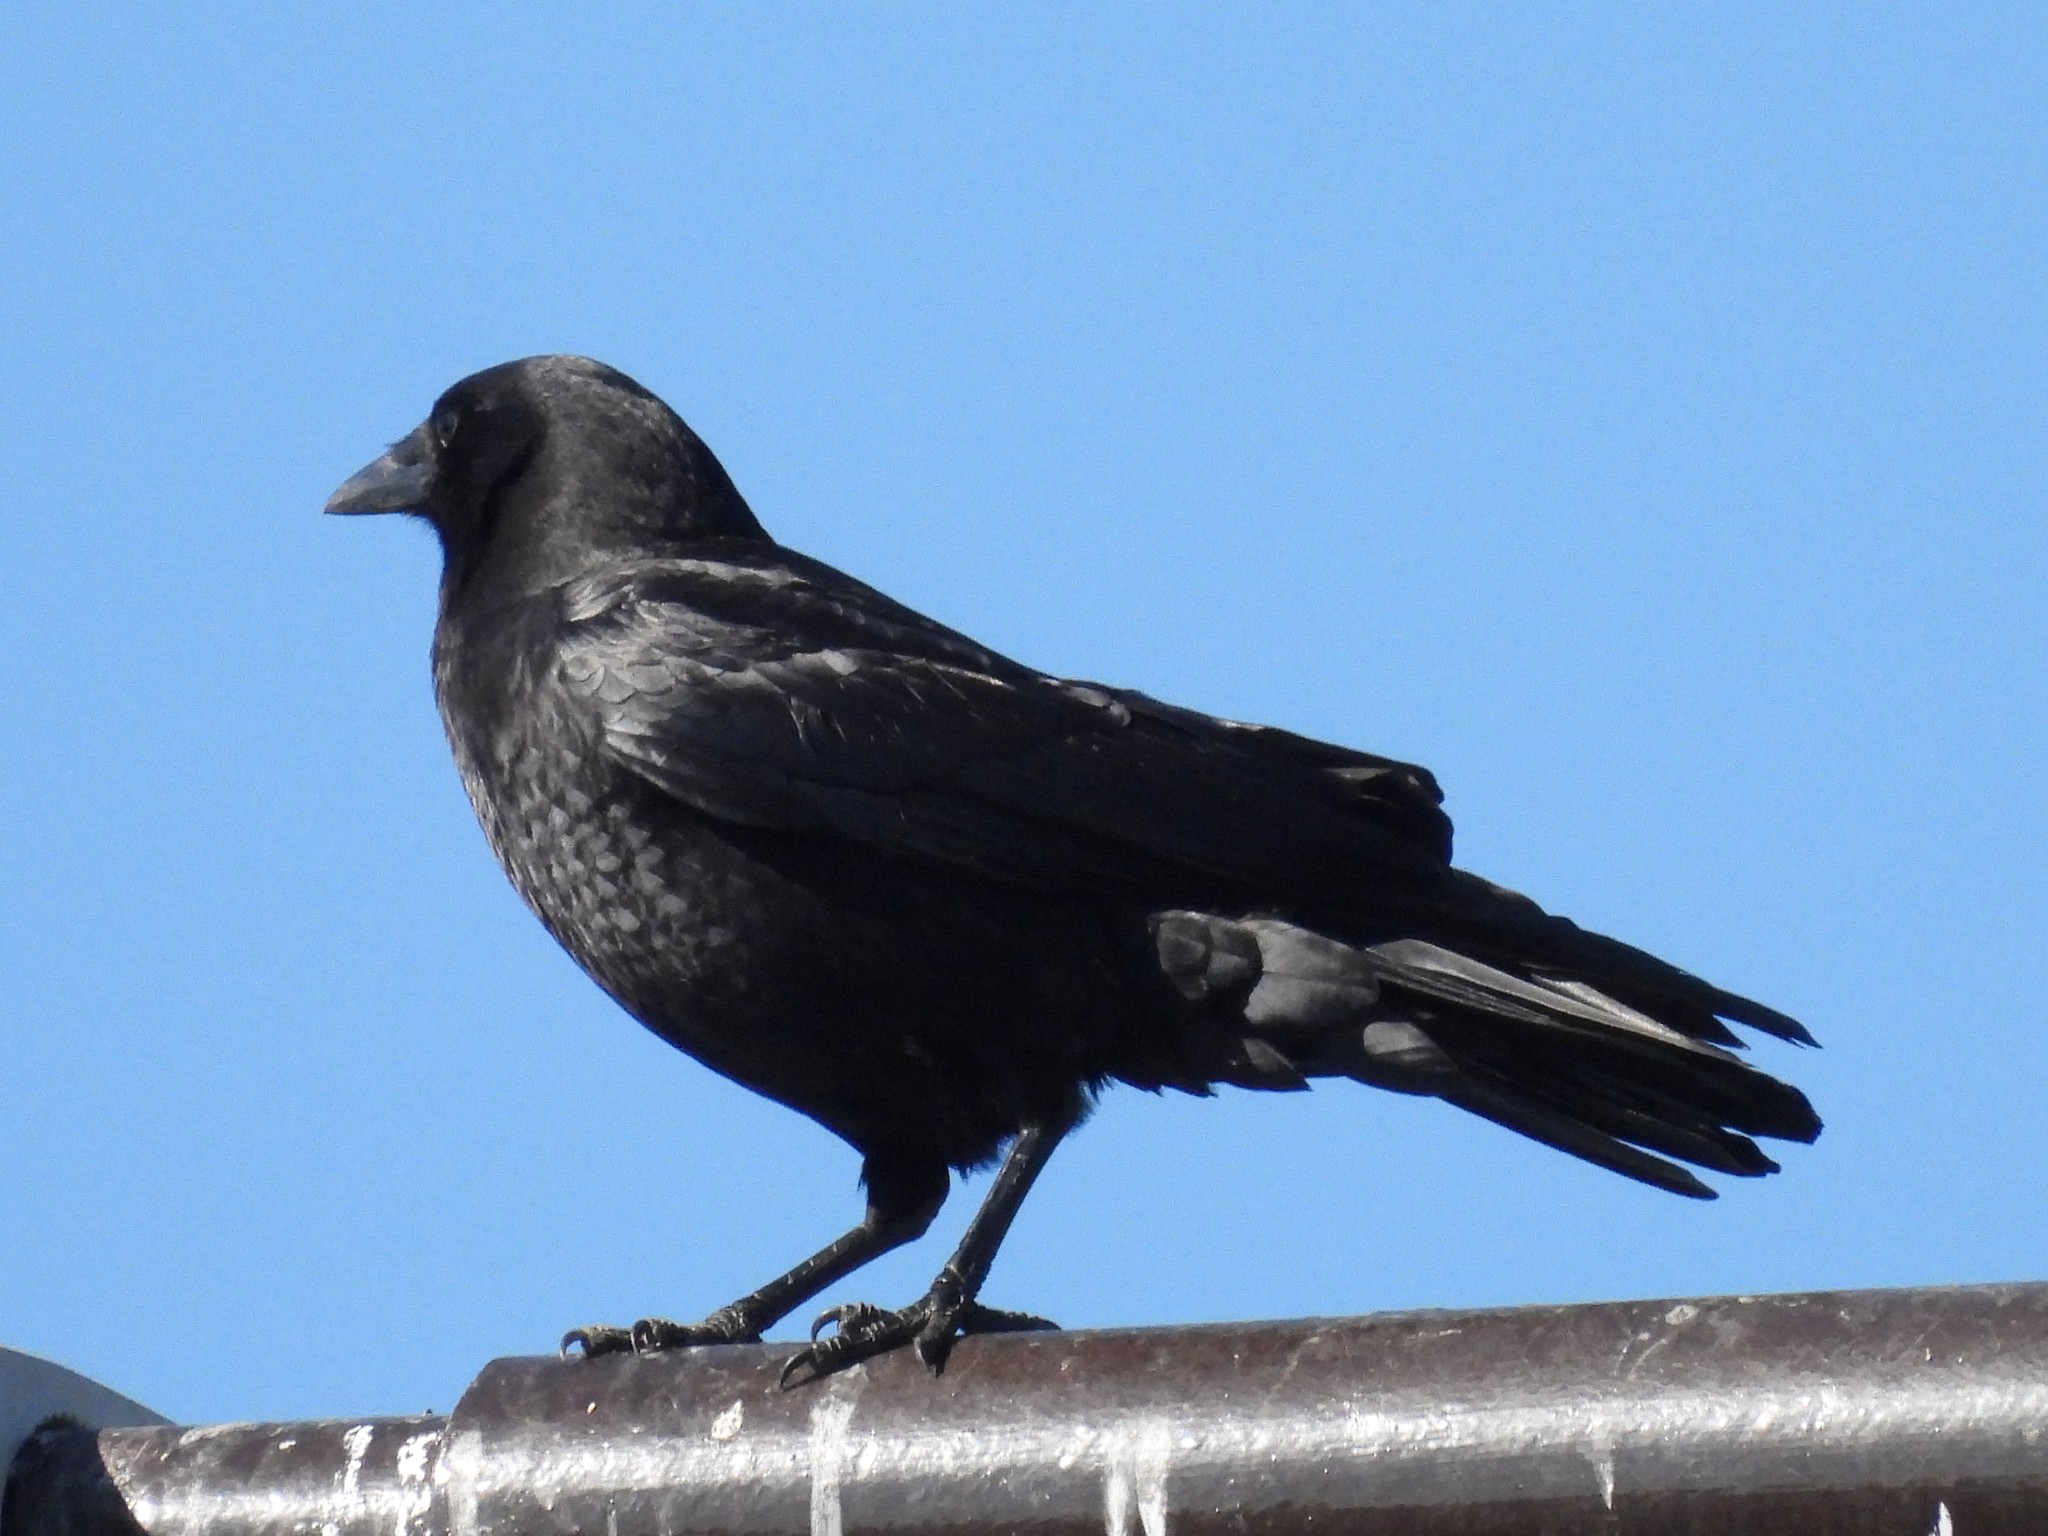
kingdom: Animalia
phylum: Chordata
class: Aves
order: Passeriformes
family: Corvidae
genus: Corvus
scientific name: Corvus brachyrhynchos
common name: American crow
